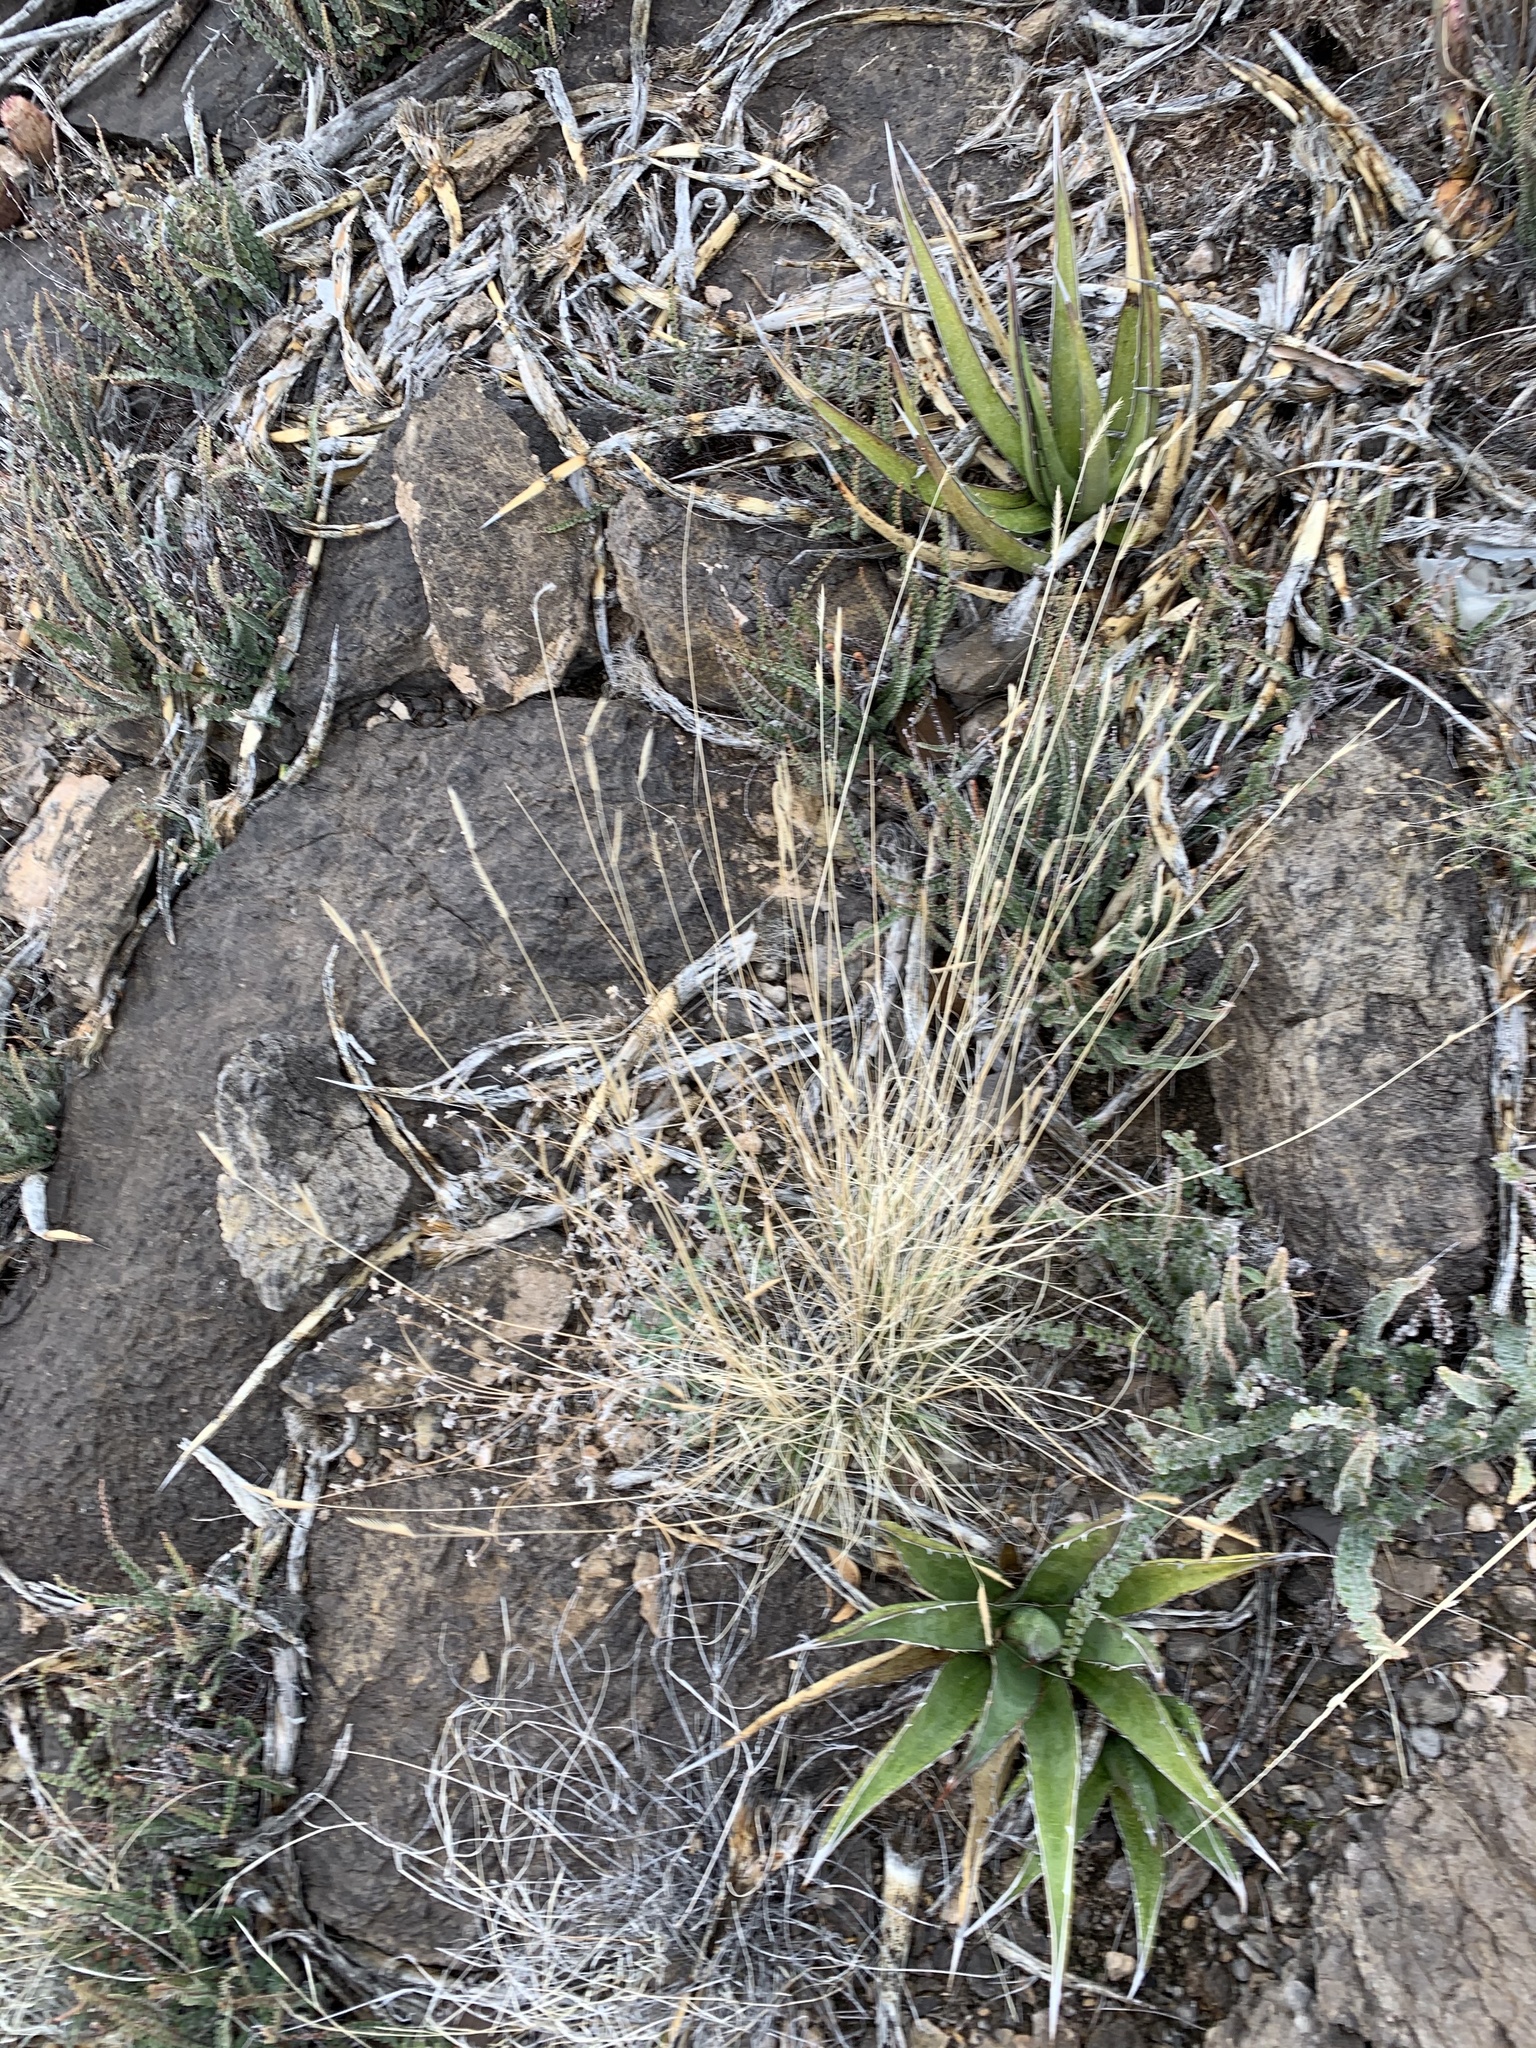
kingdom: Plantae
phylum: Tracheophyta
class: Liliopsida
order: Poales
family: Poaceae
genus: Bouteloua
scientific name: Bouteloua gracilis
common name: Blue grama
